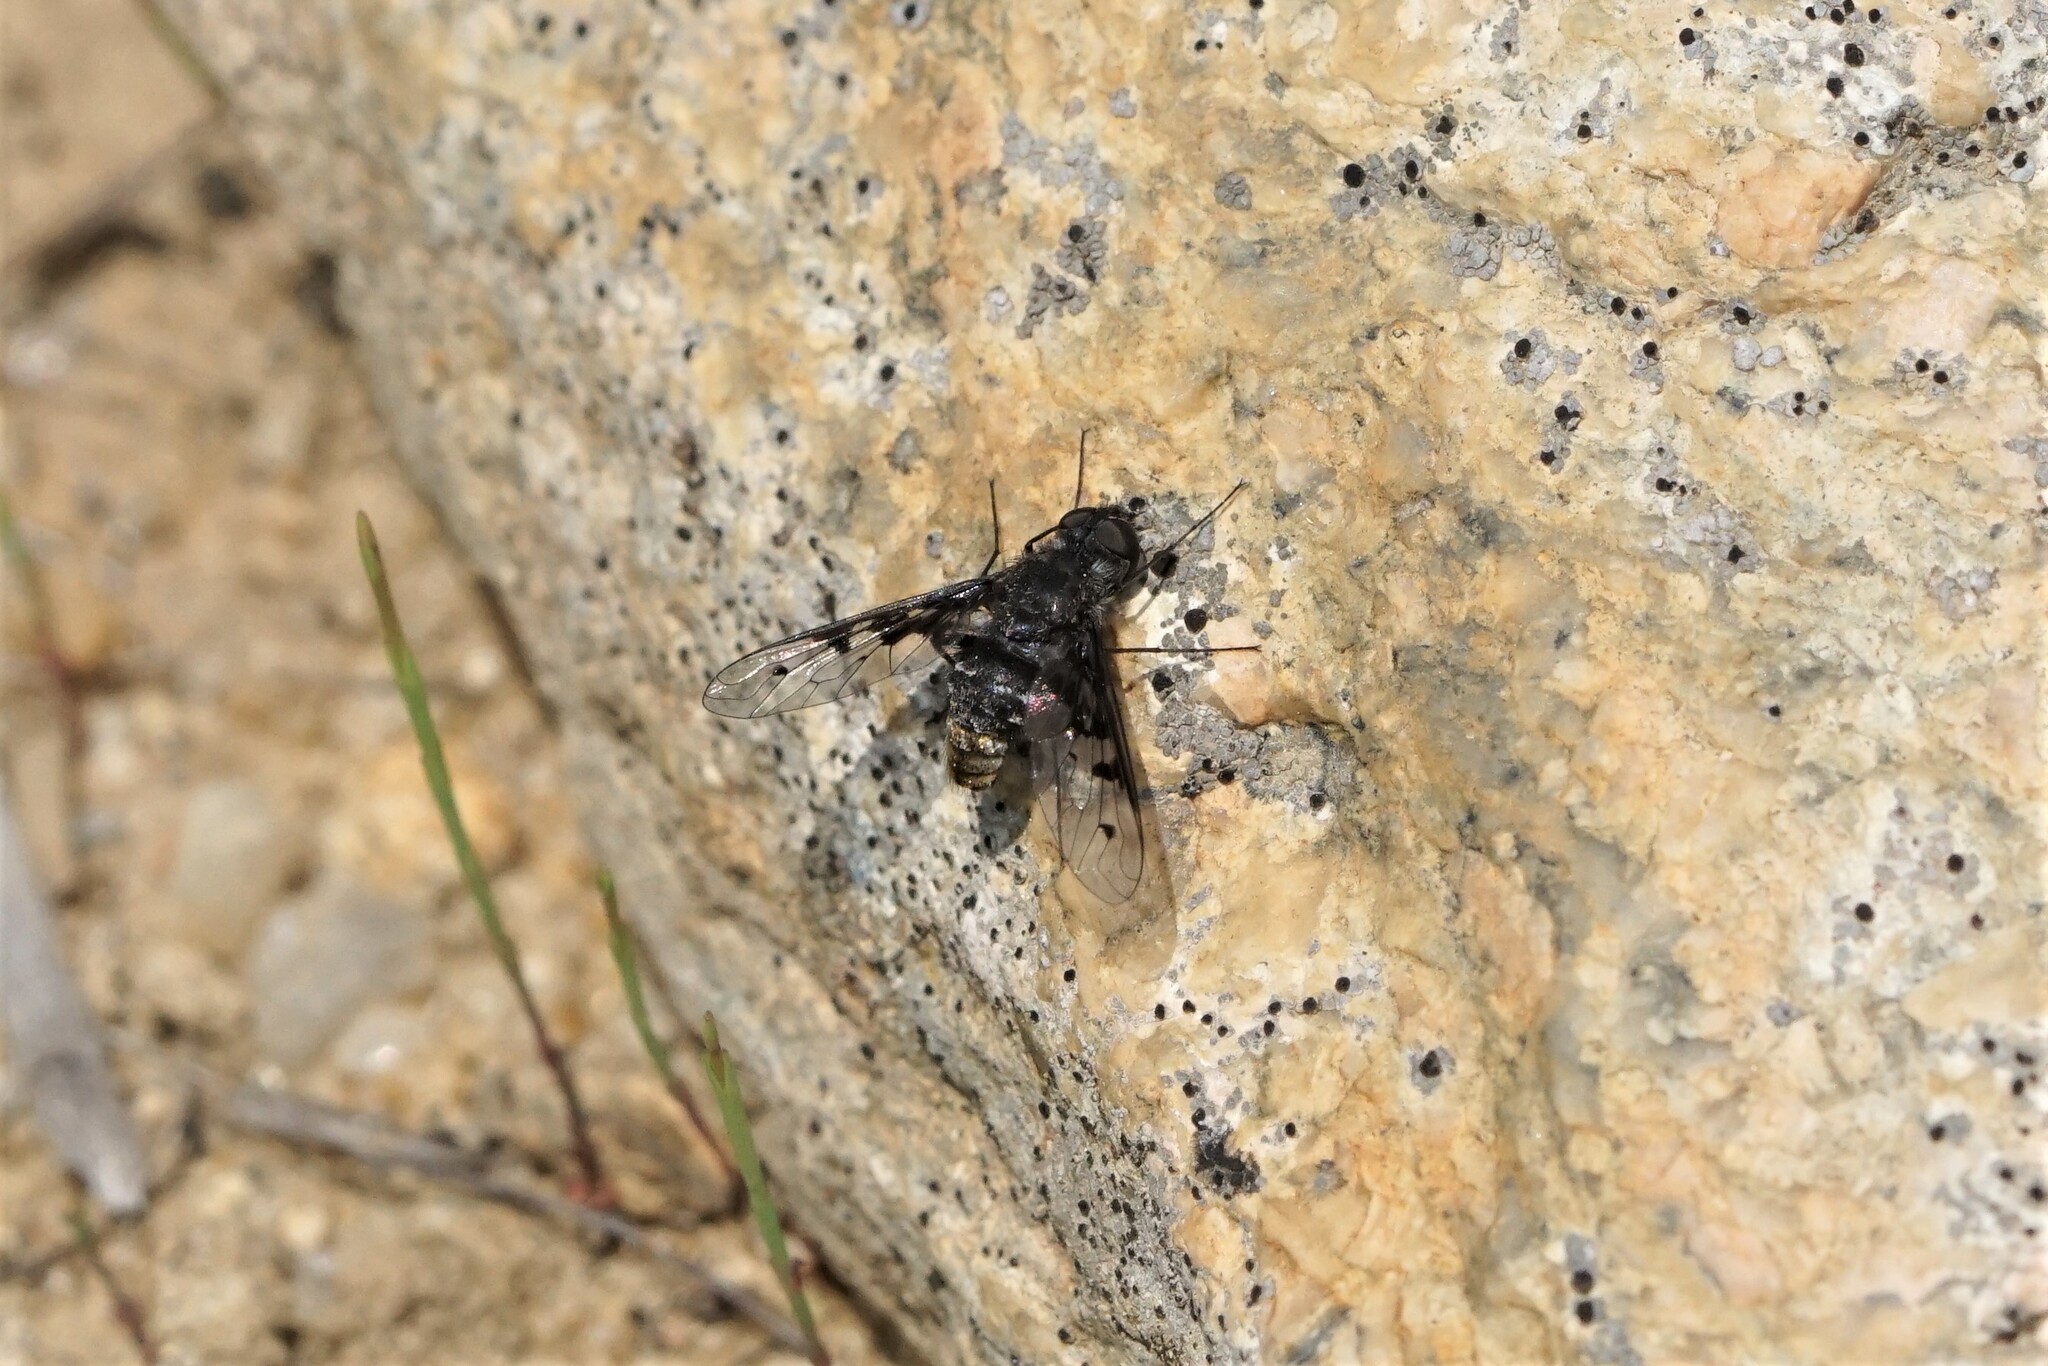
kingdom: Animalia
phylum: Arthropoda
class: Insecta
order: Diptera
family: Bombyliidae
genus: Anthrax
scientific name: Anthrax albofasciatus
